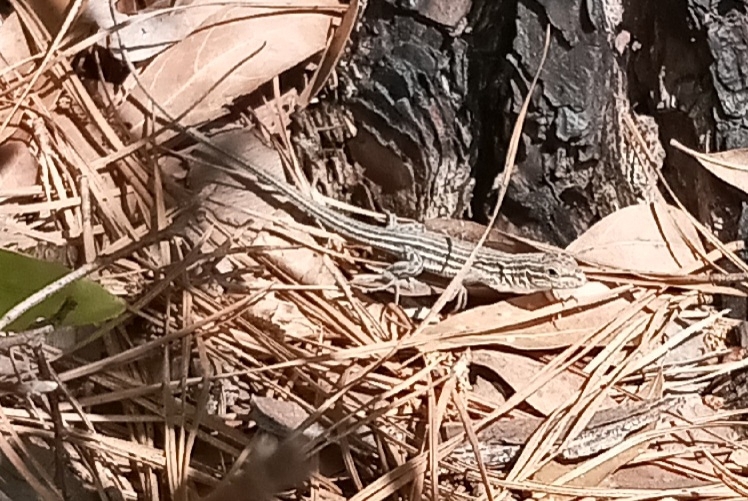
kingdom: Animalia
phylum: Chordata
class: Squamata
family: Teiidae
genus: Aspidoscelis
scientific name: Aspidoscelis sexlineatus
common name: Six-lined racerunner
